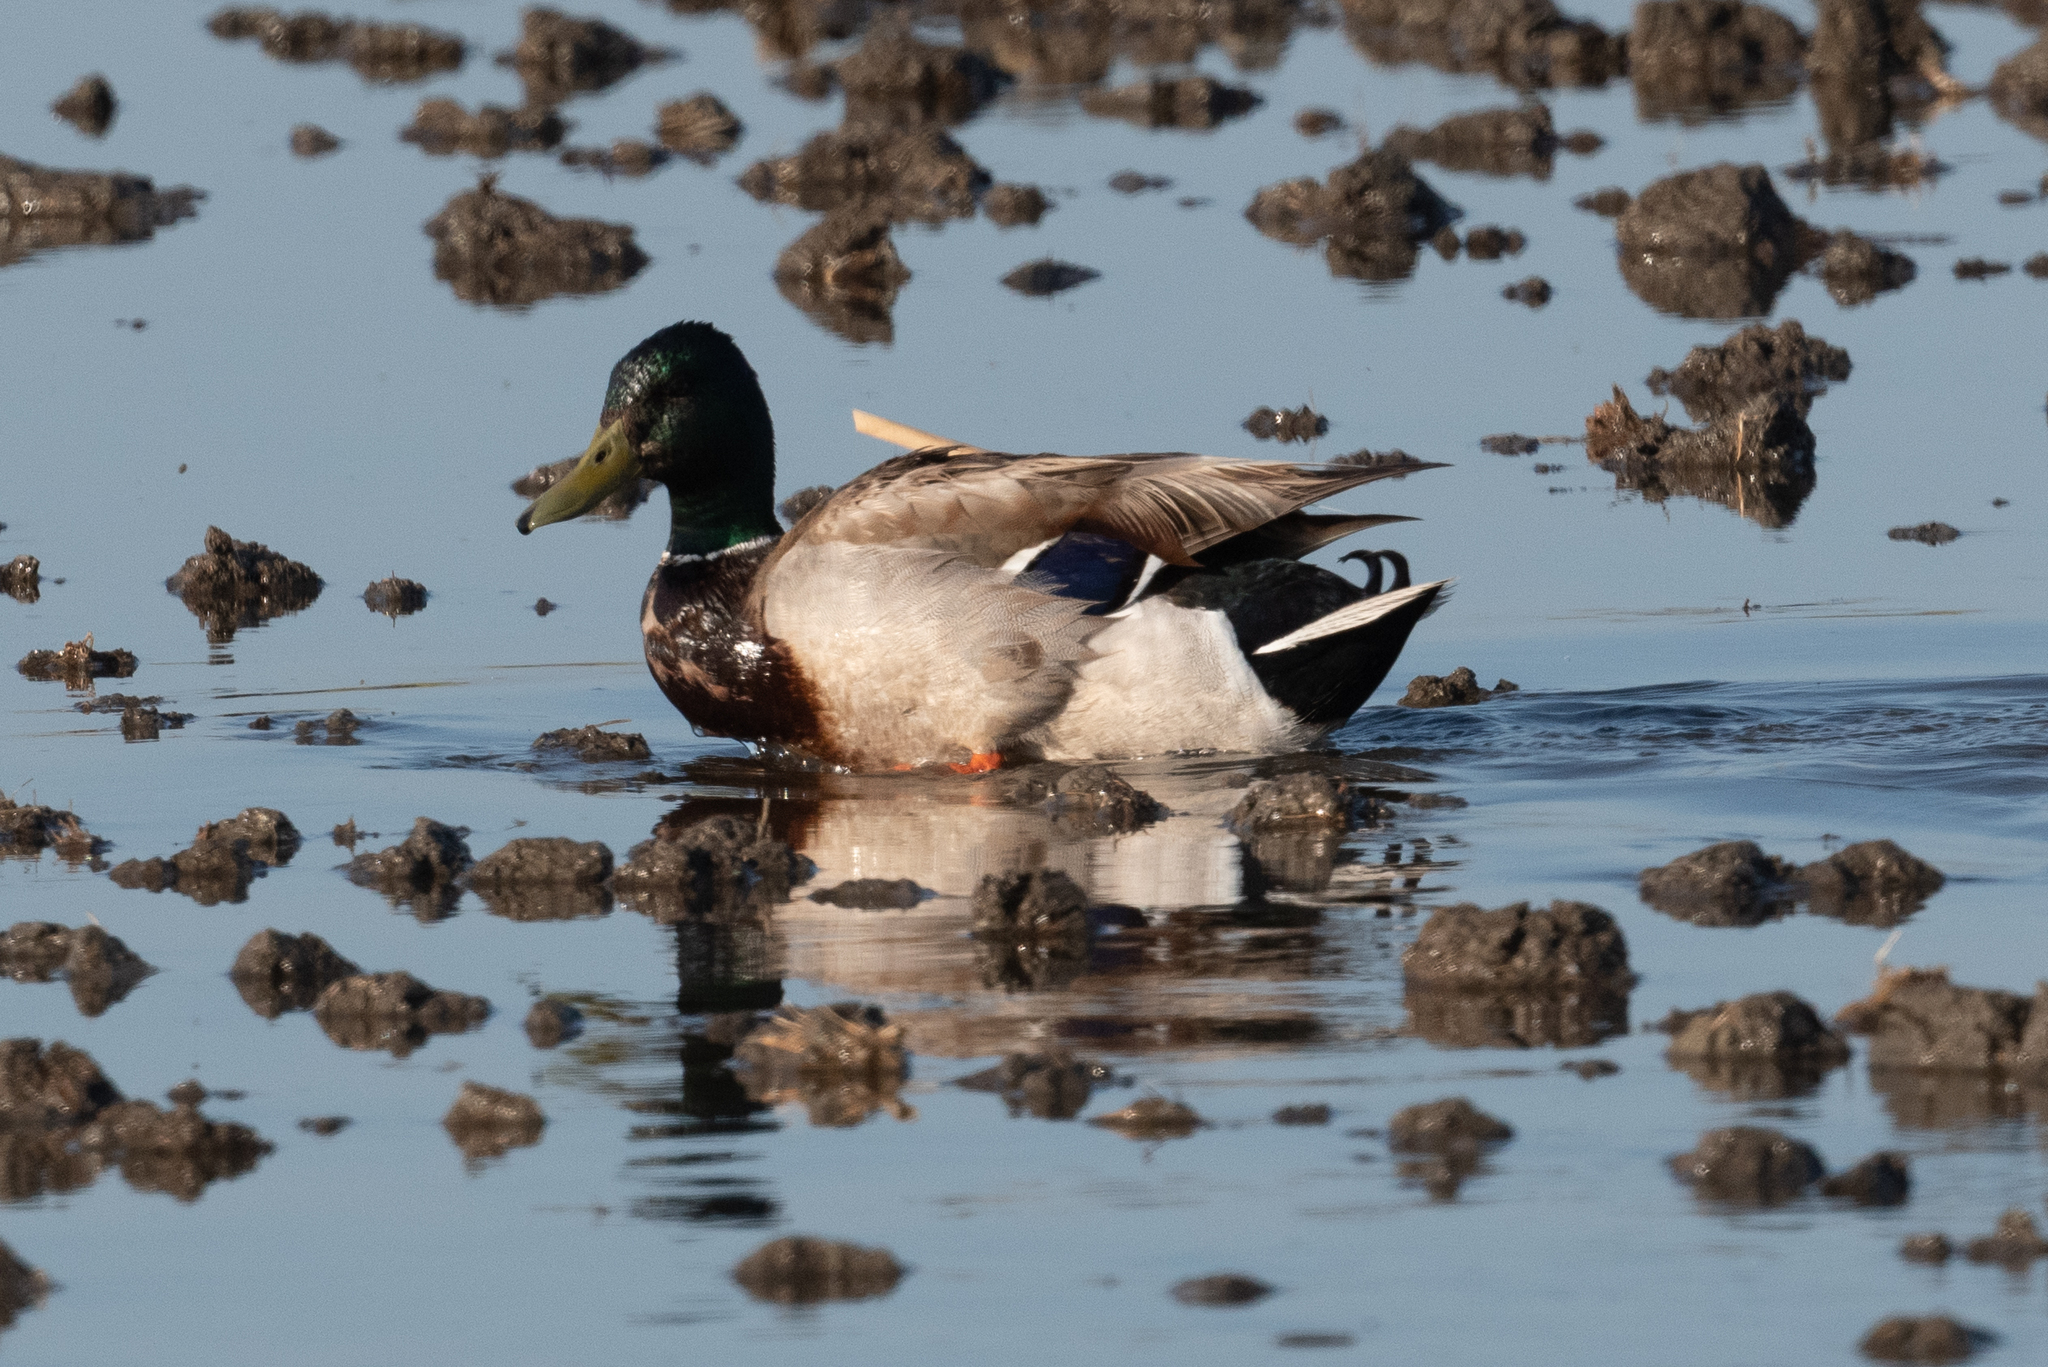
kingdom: Animalia
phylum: Chordata
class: Aves
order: Anseriformes
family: Anatidae
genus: Anas
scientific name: Anas platyrhynchos
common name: Mallard
